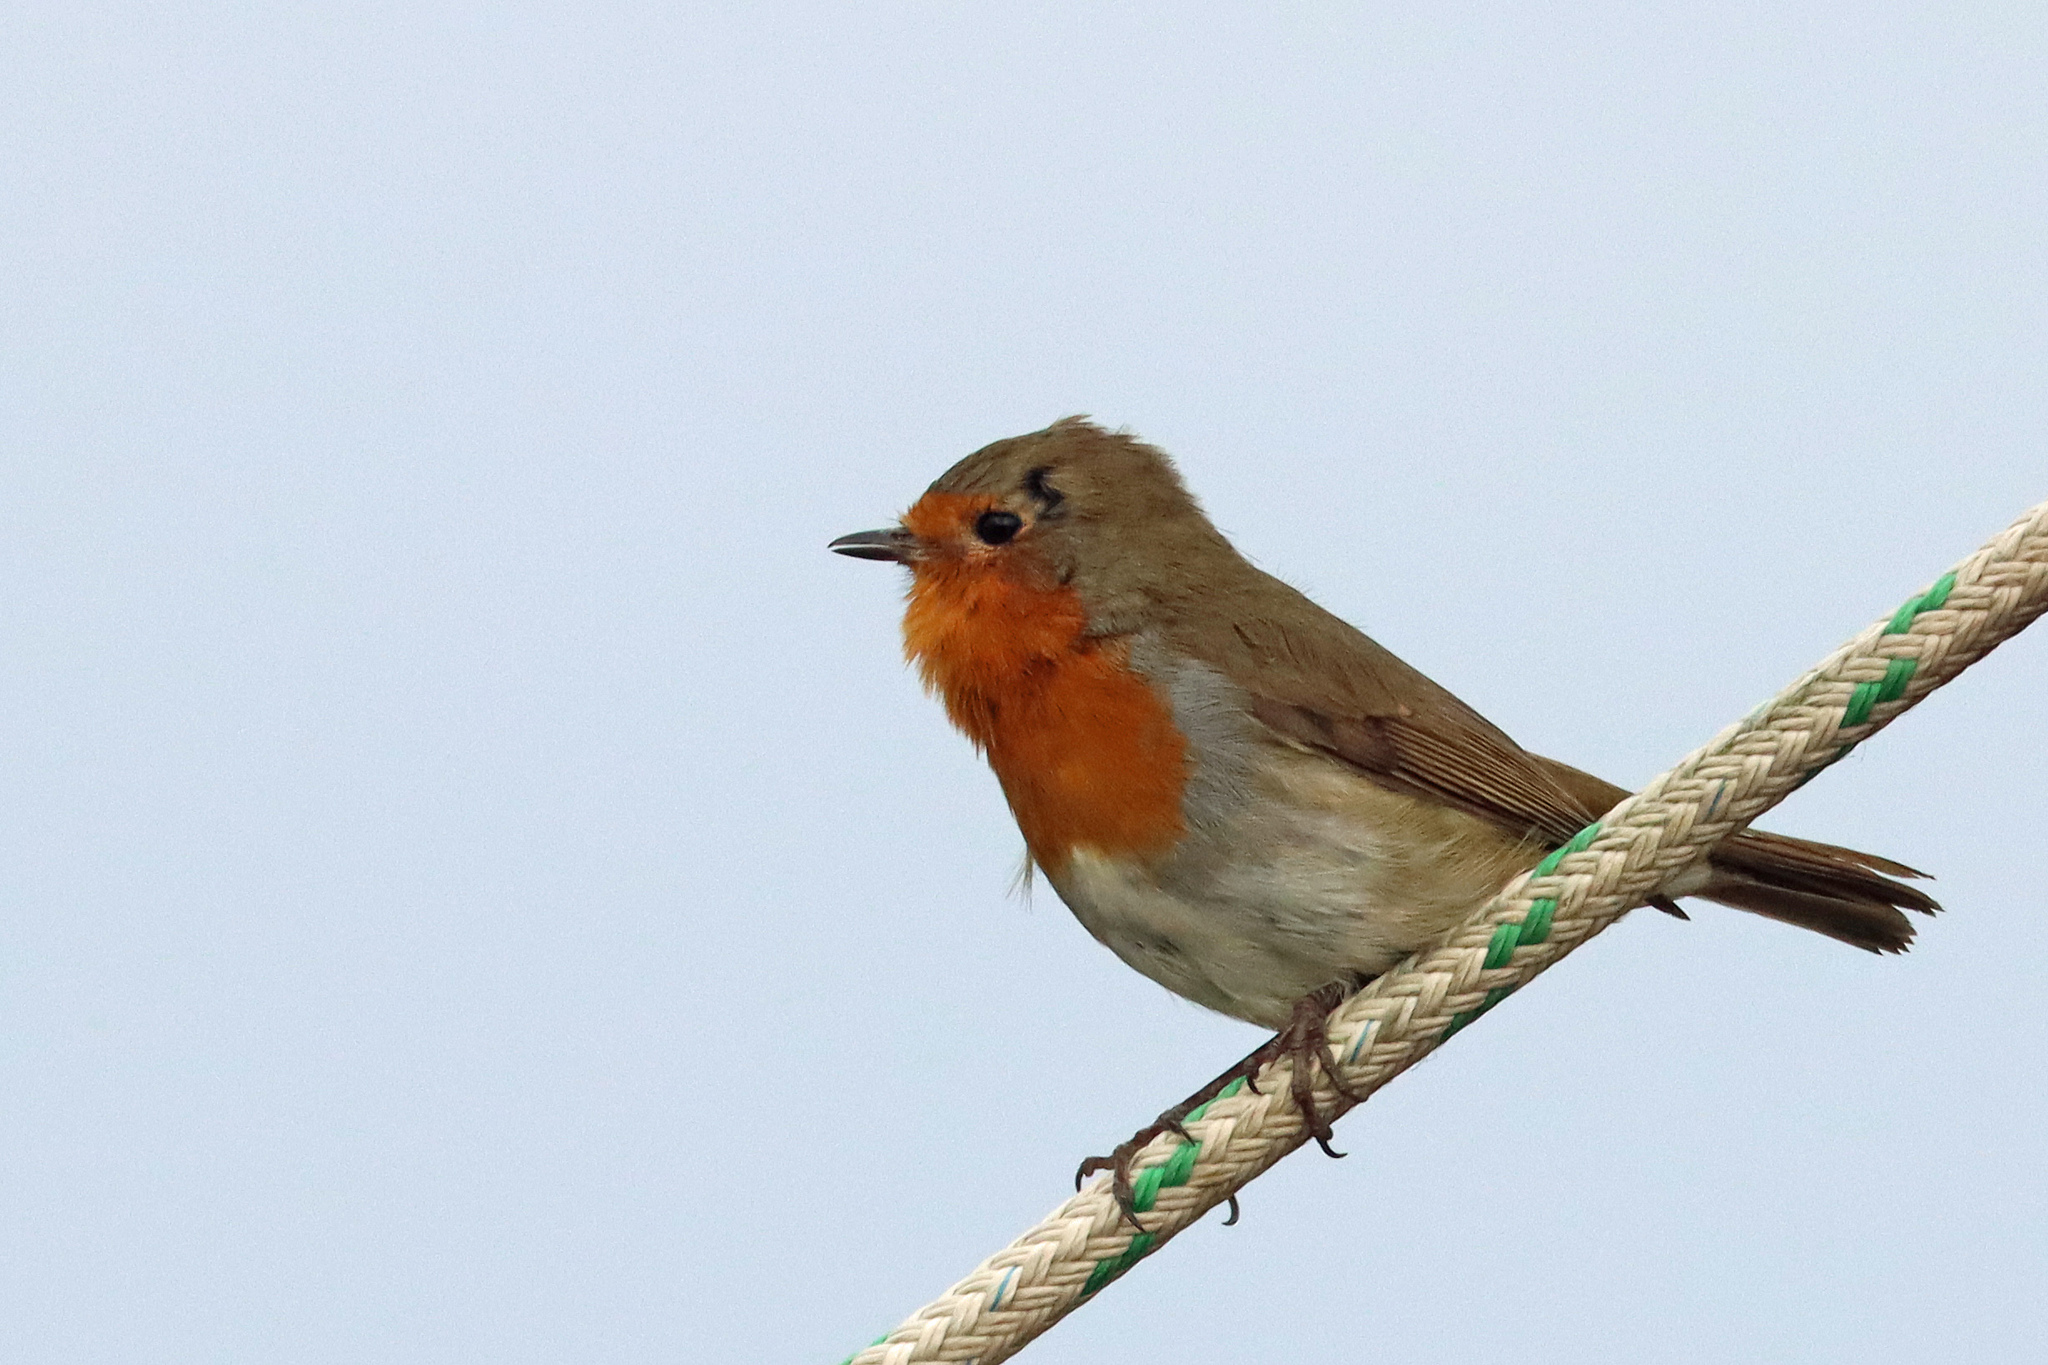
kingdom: Animalia
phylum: Chordata
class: Aves
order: Passeriformes
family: Muscicapidae
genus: Erithacus
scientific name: Erithacus rubecula
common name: European robin
